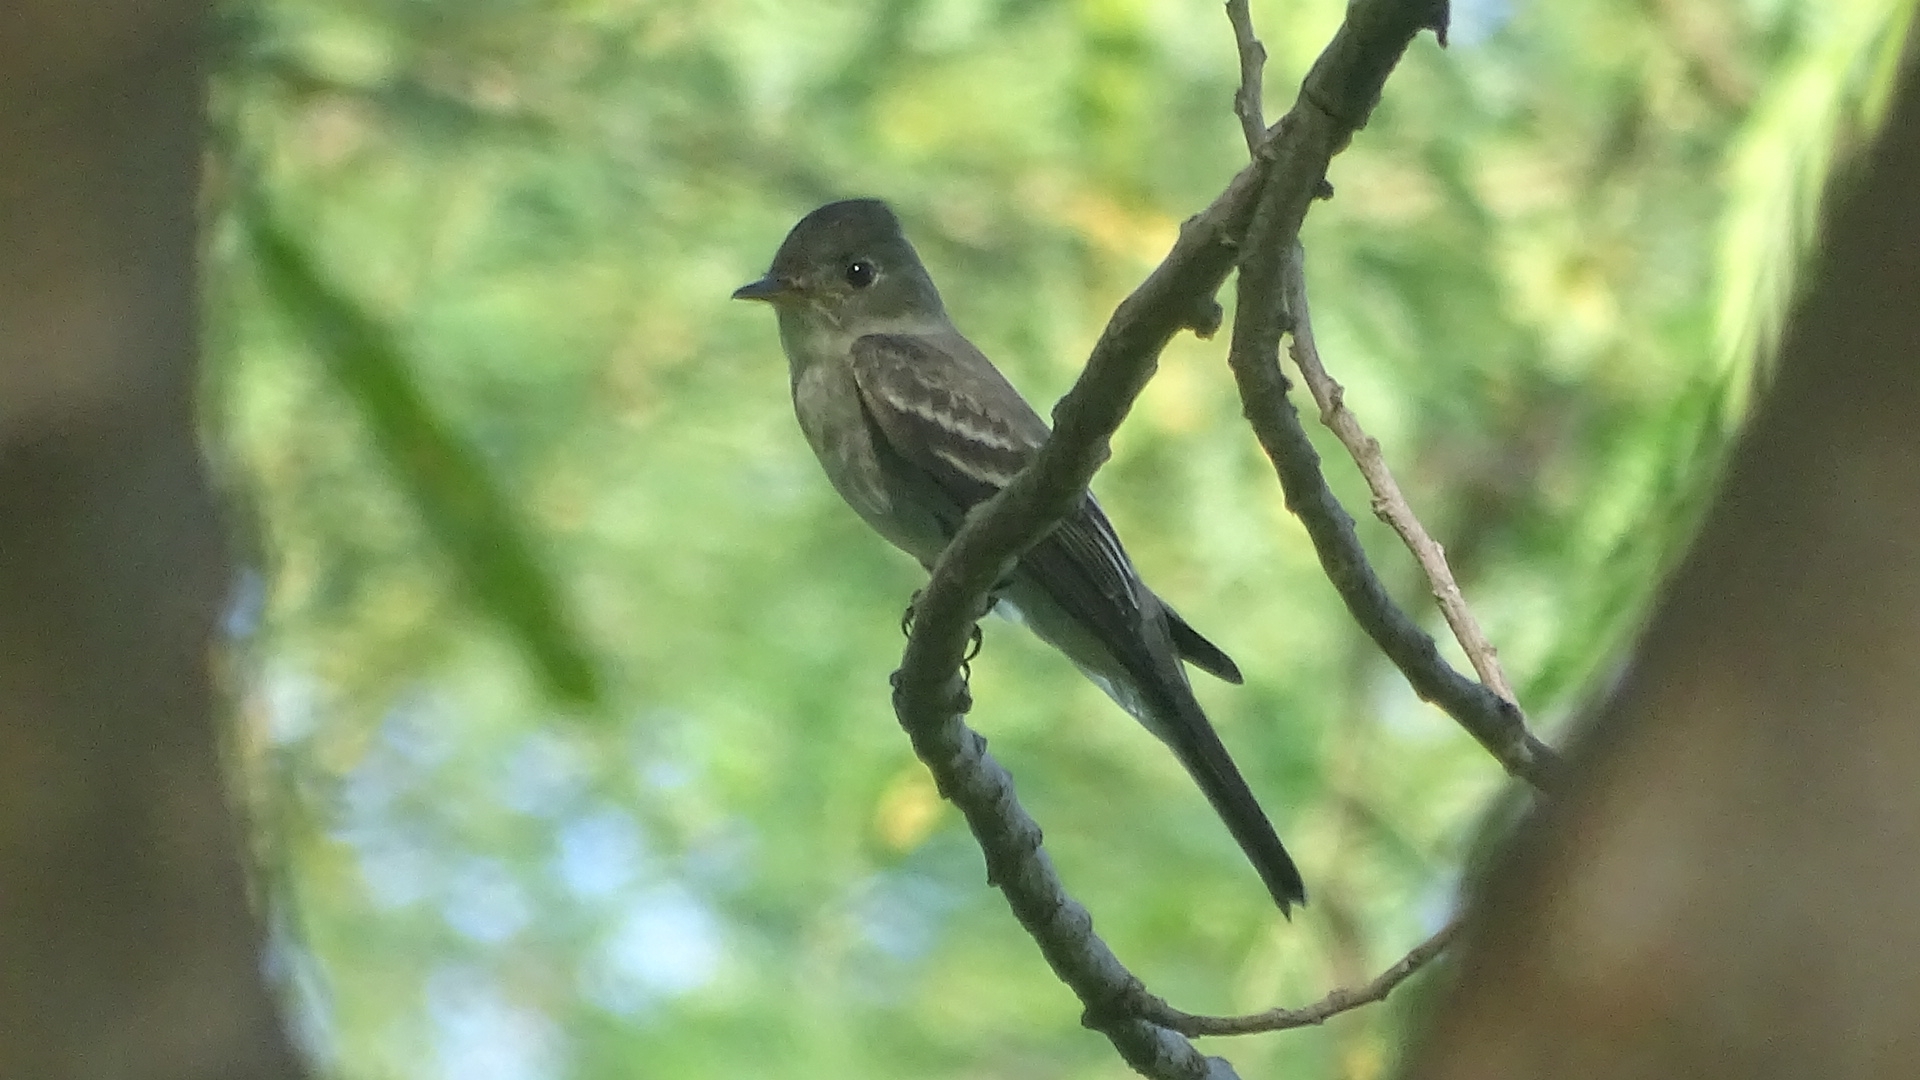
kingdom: Animalia
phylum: Chordata
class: Aves
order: Passeriformes
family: Tyrannidae
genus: Contopus
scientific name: Contopus virens
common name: Eastern wood-pewee
